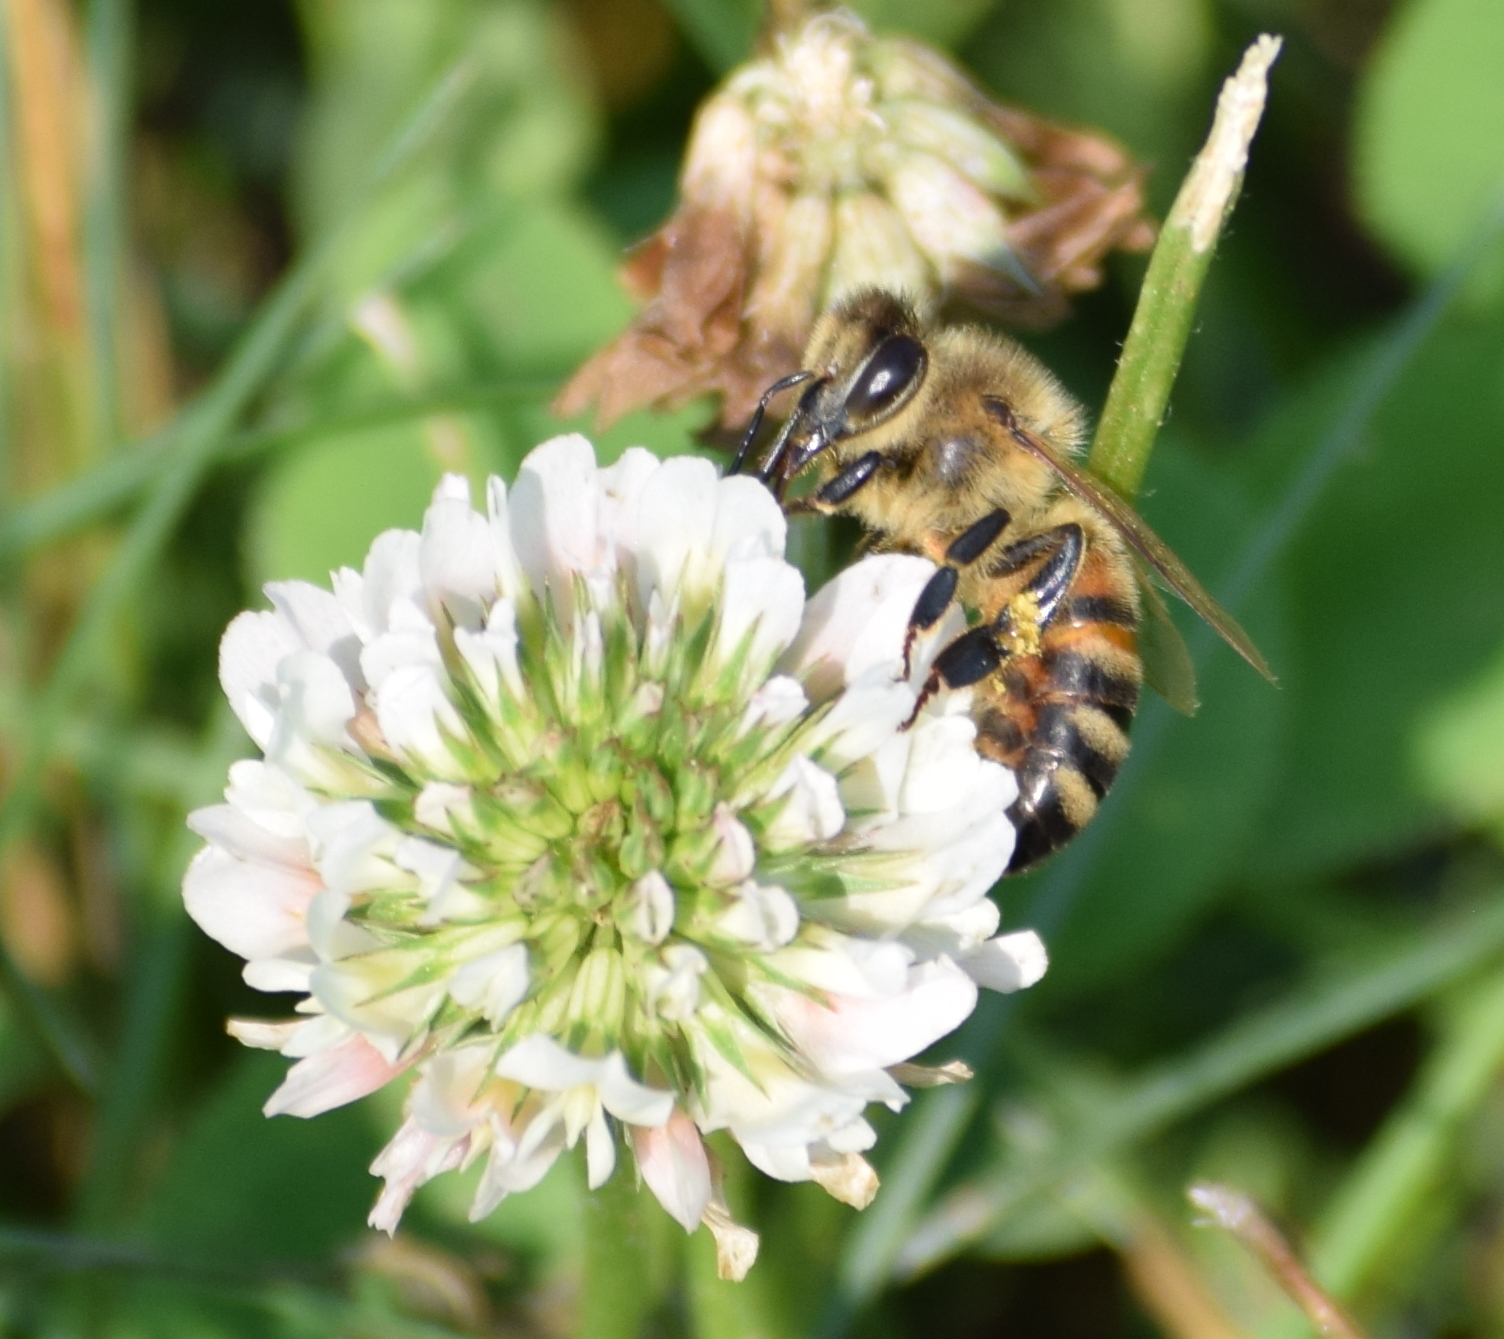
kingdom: Plantae
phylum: Tracheophyta
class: Magnoliopsida
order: Fabales
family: Fabaceae
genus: Trifolium
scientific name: Trifolium repens
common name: White clover
